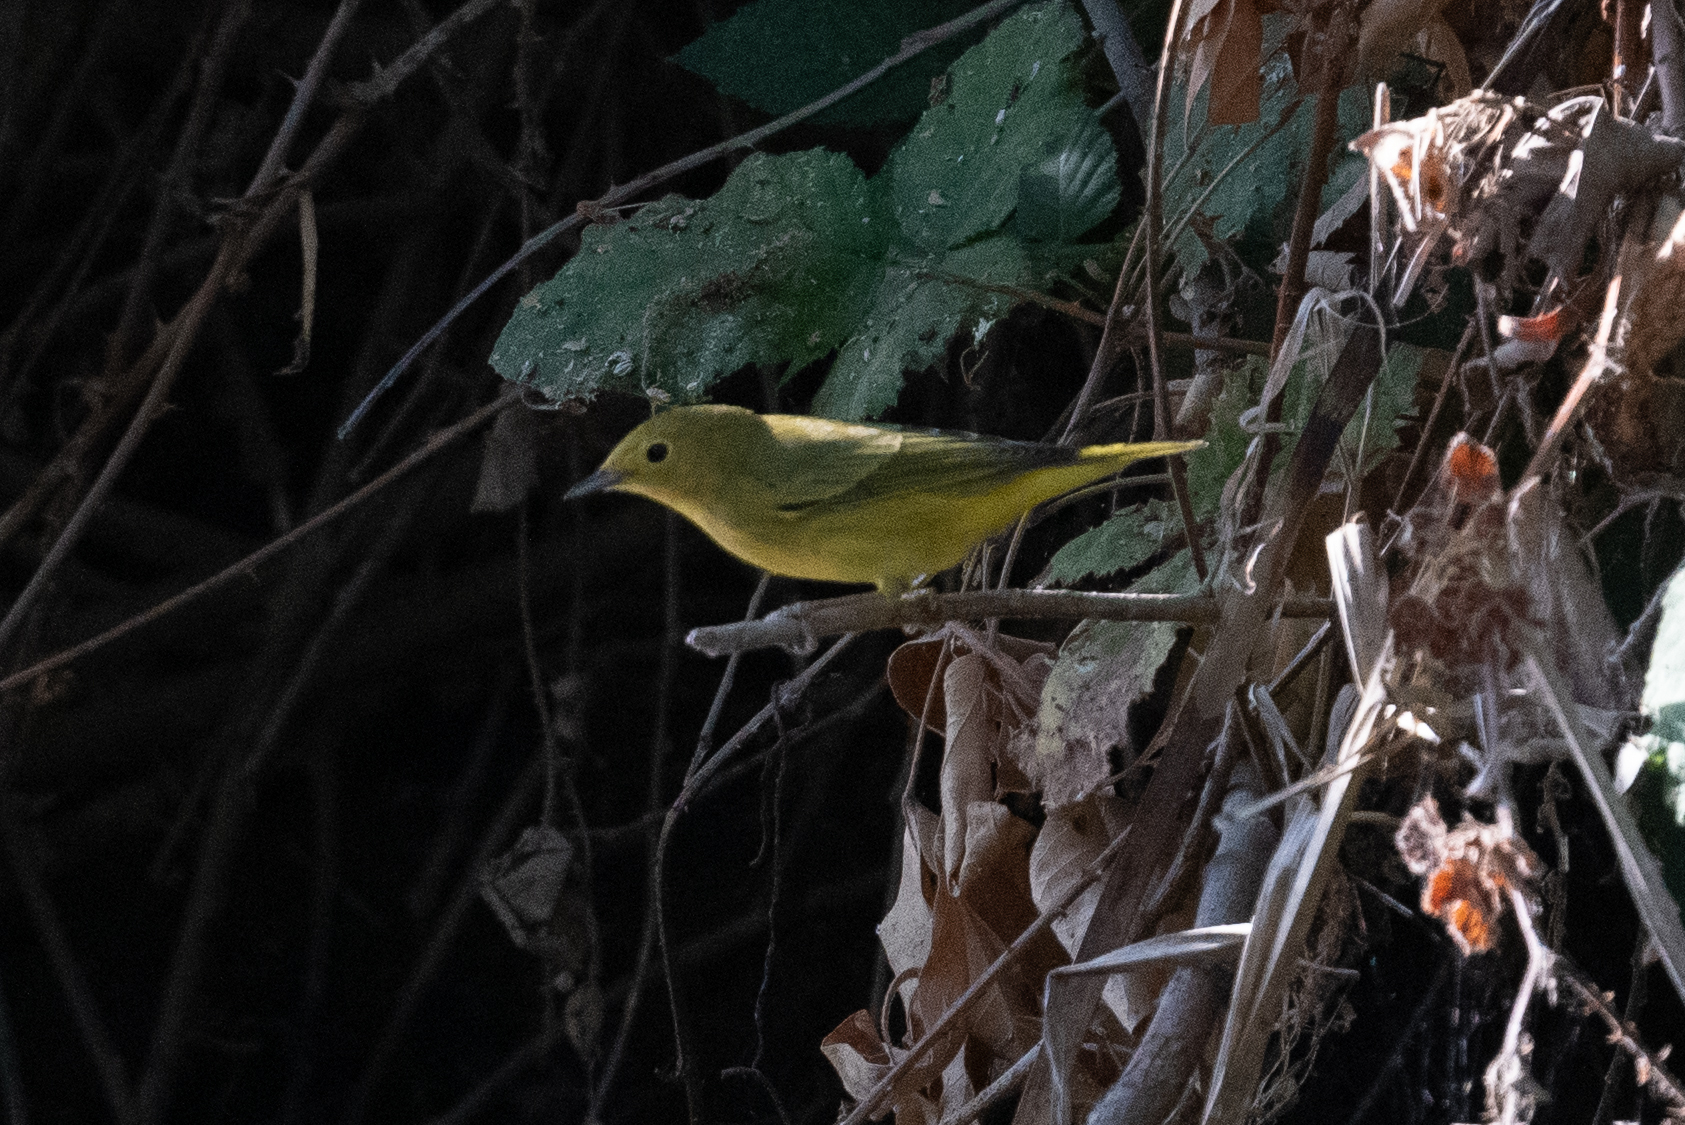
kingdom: Animalia
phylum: Chordata
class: Aves
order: Passeriformes
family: Parulidae
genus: Setophaga
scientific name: Setophaga petechia
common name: Yellow warbler
